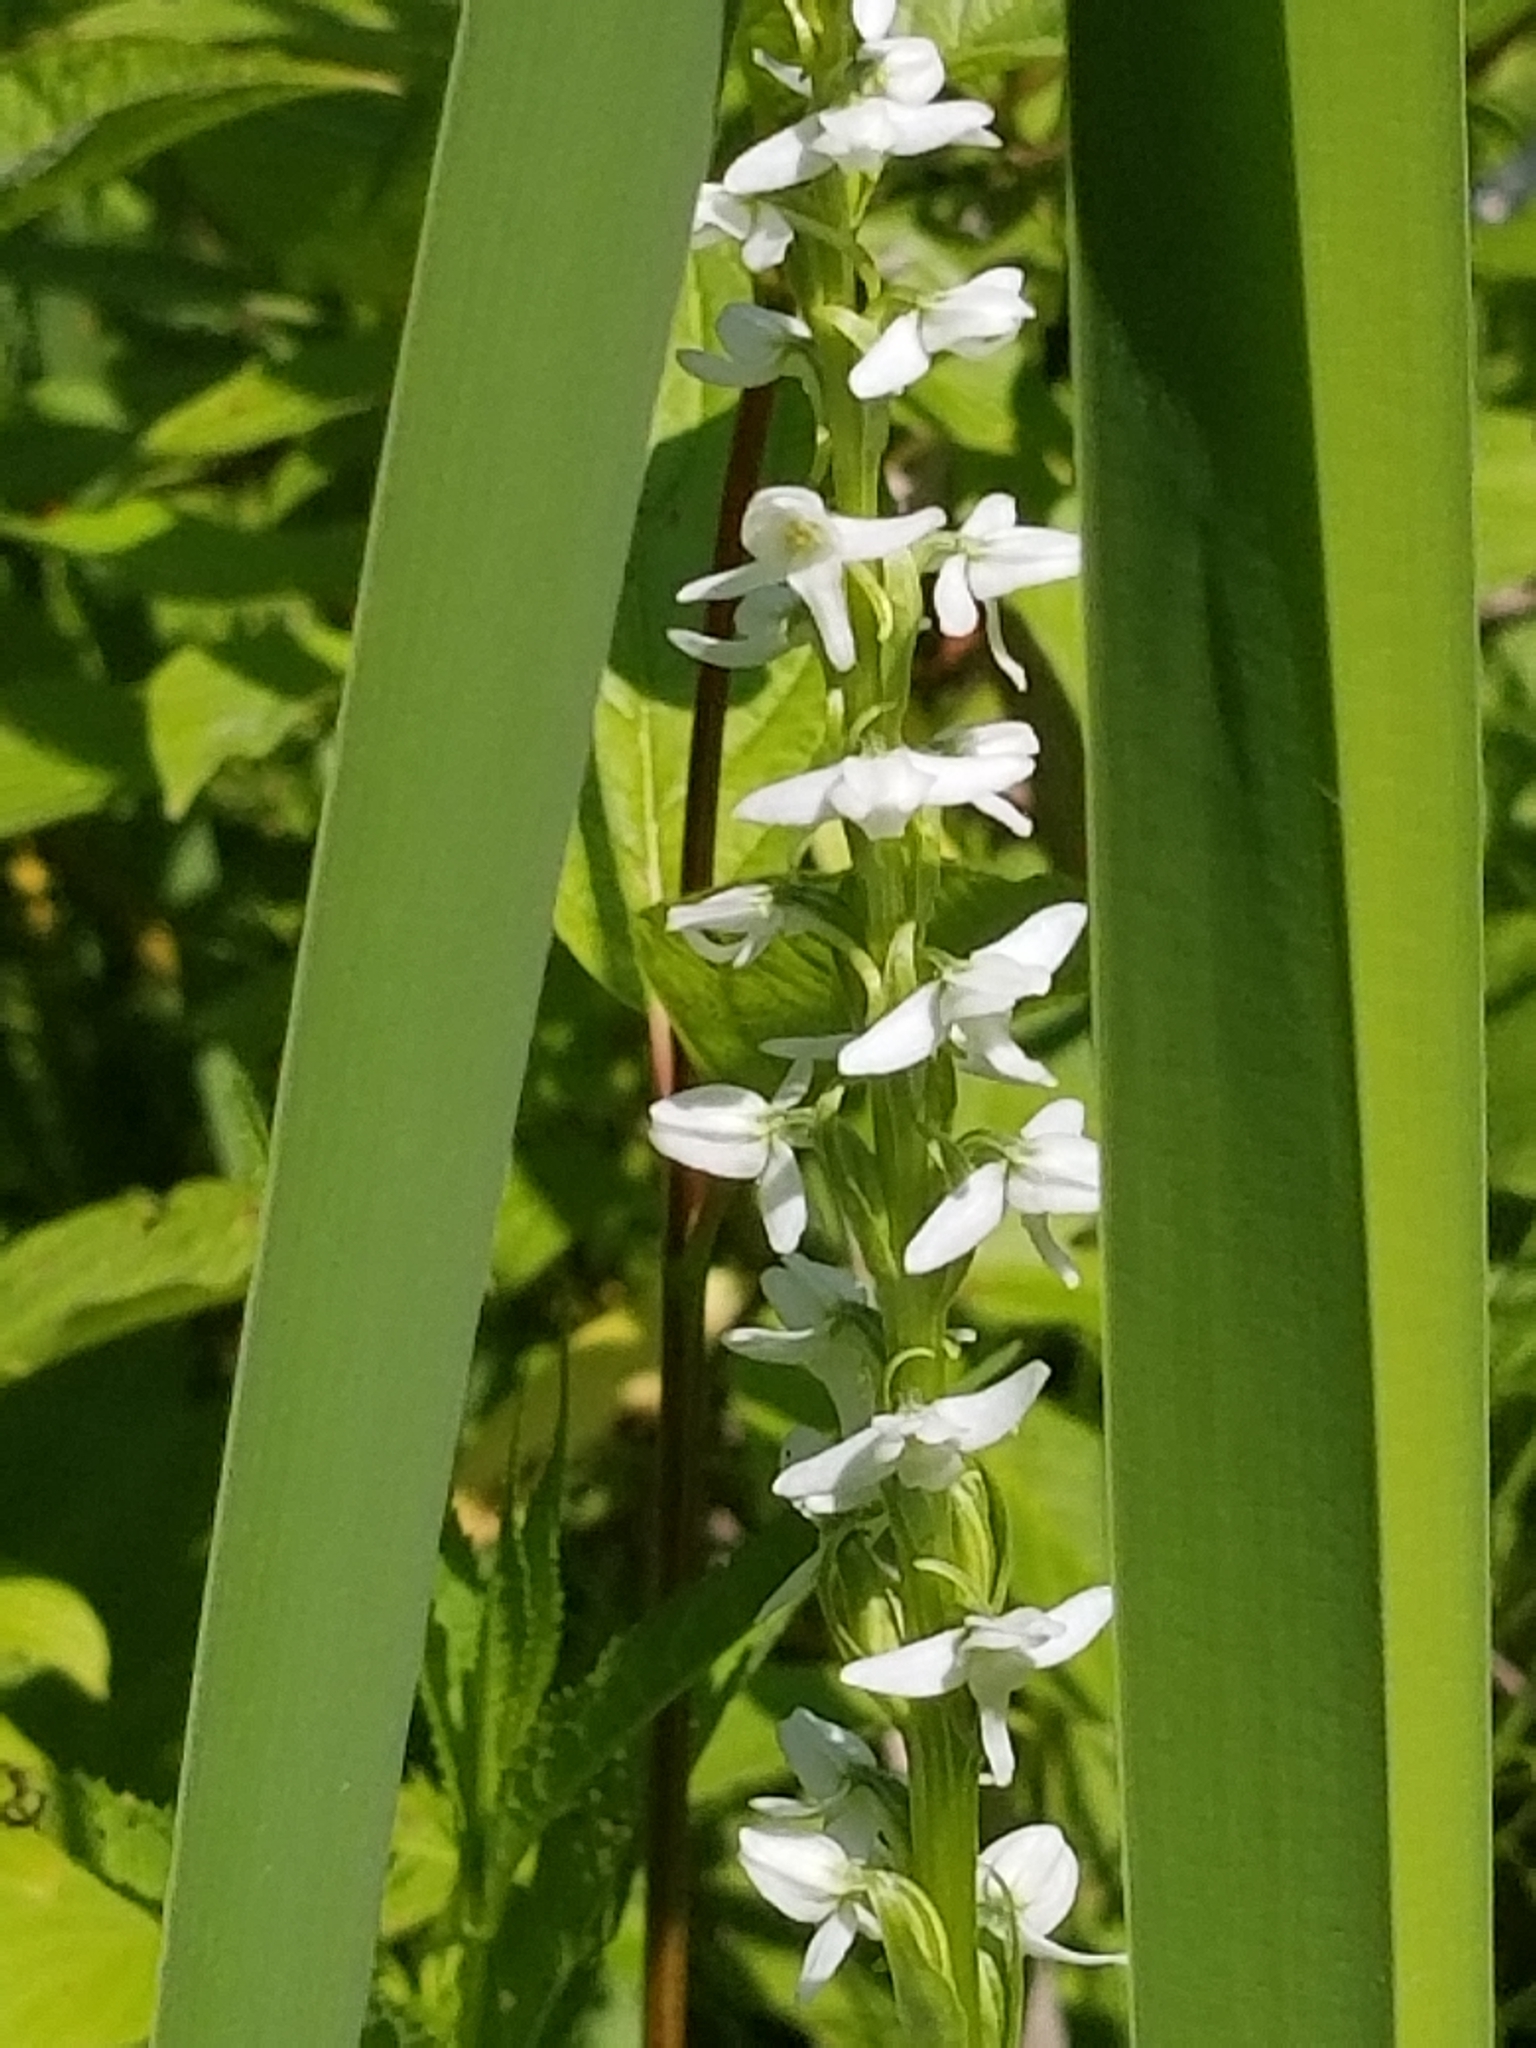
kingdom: Plantae
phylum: Tracheophyta
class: Liliopsida
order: Asparagales
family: Orchidaceae
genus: Platanthera
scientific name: Platanthera dilatata
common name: Bog candles
